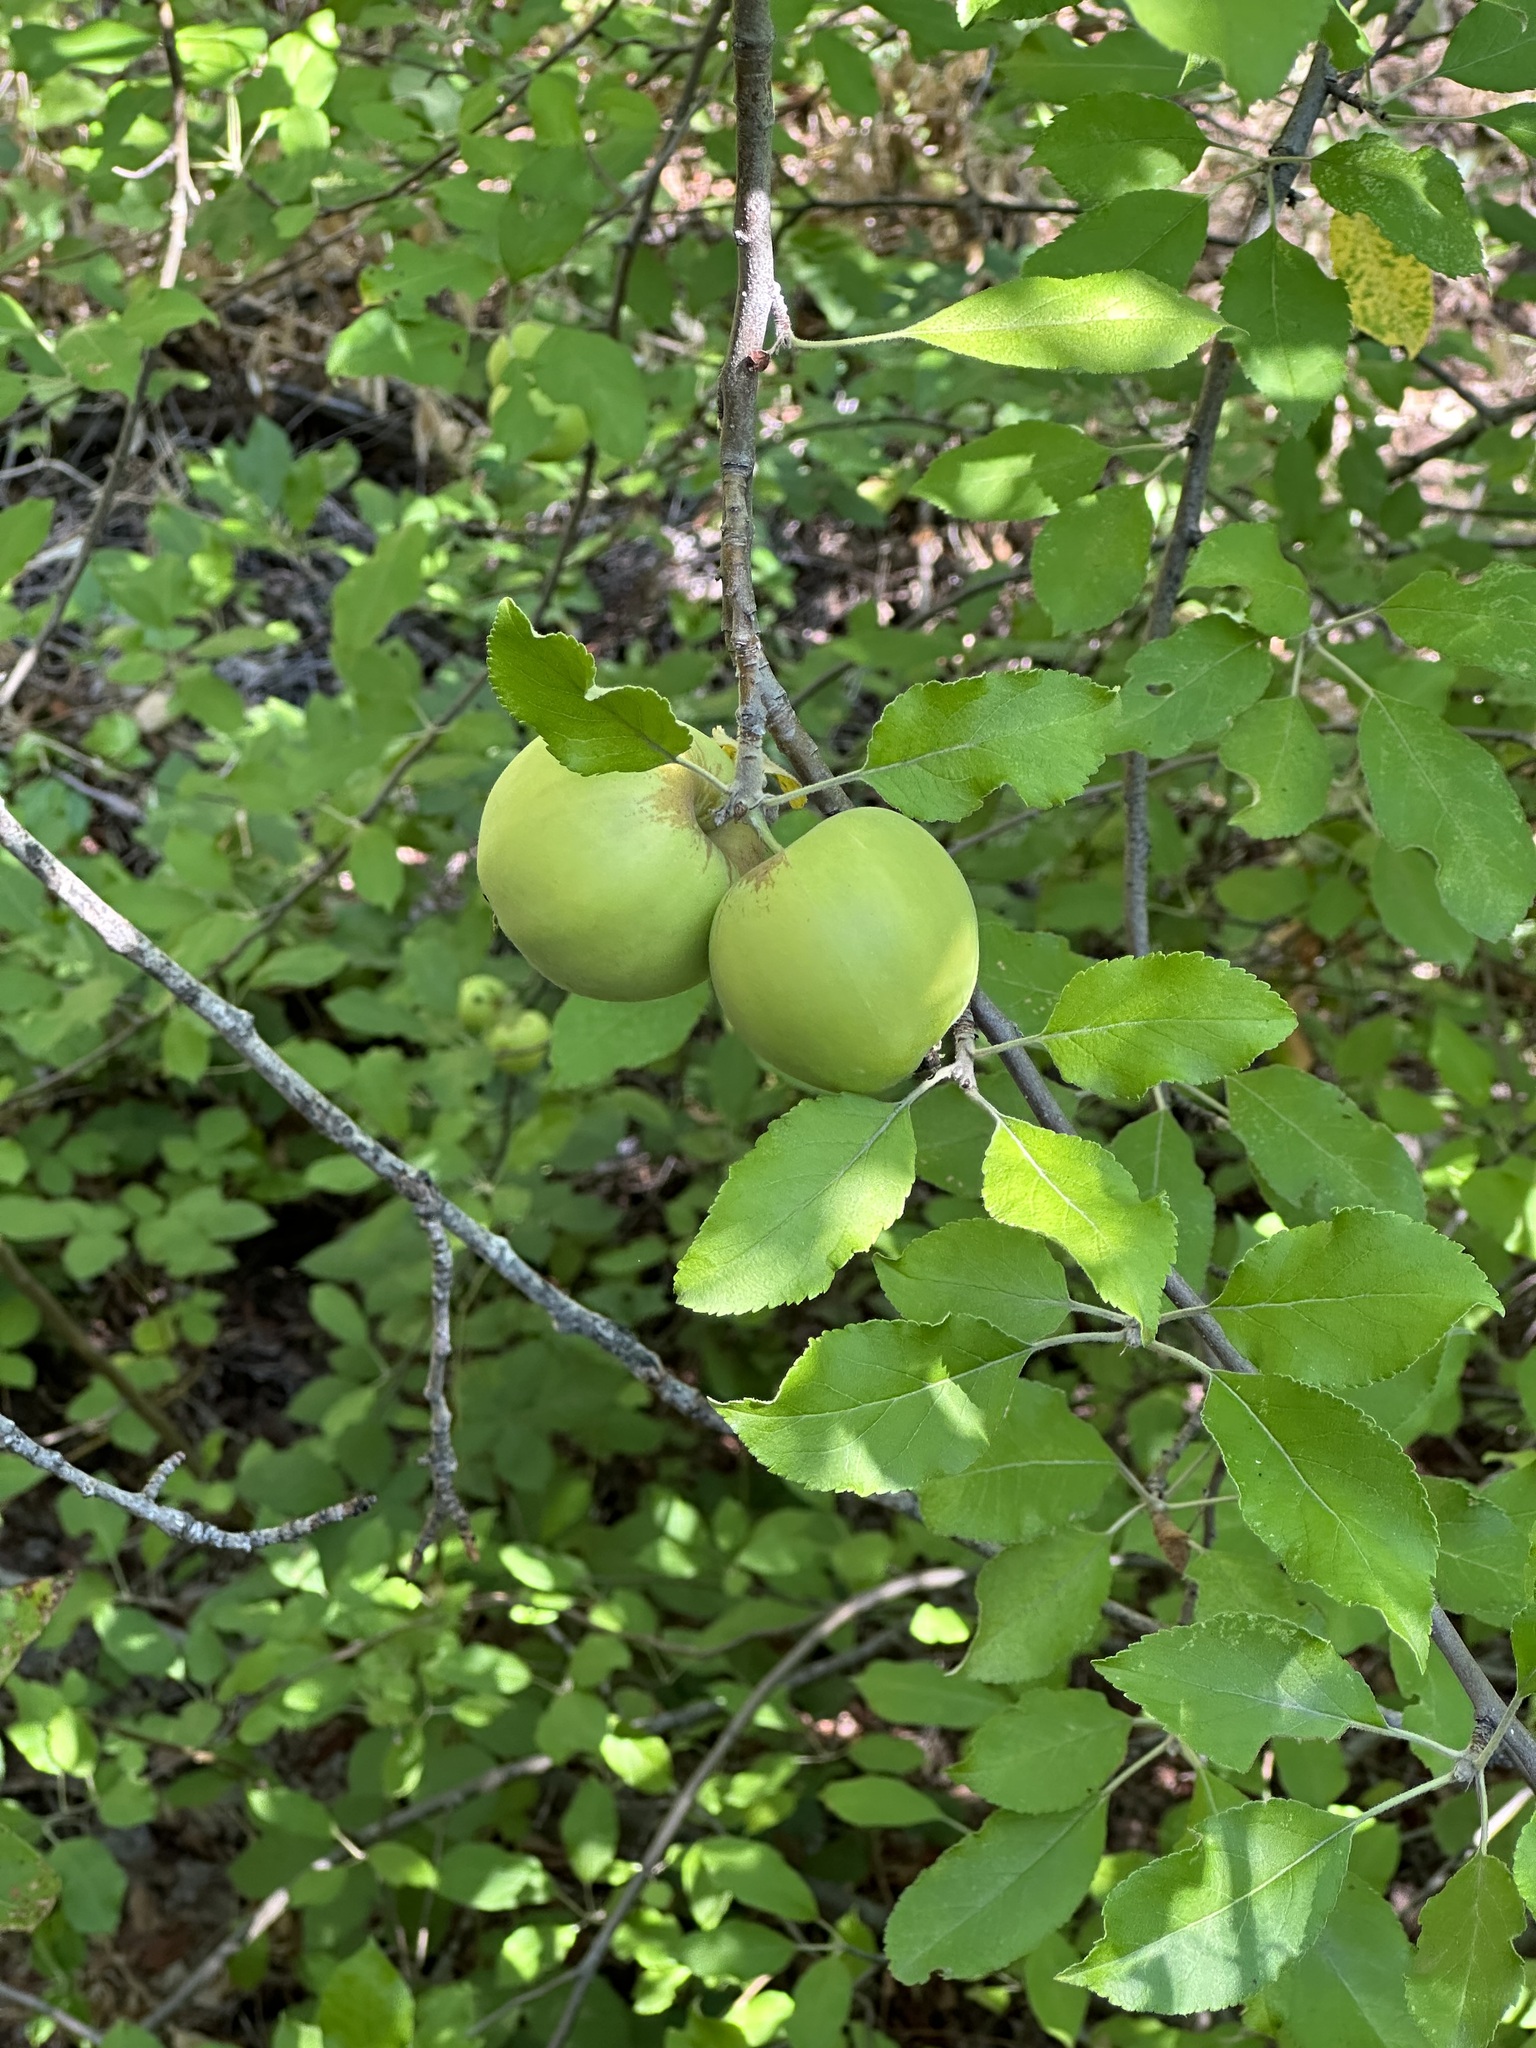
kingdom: Plantae
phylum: Tracheophyta
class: Magnoliopsida
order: Rosales
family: Rosaceae
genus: Malus
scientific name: Malus domestica
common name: Apple
